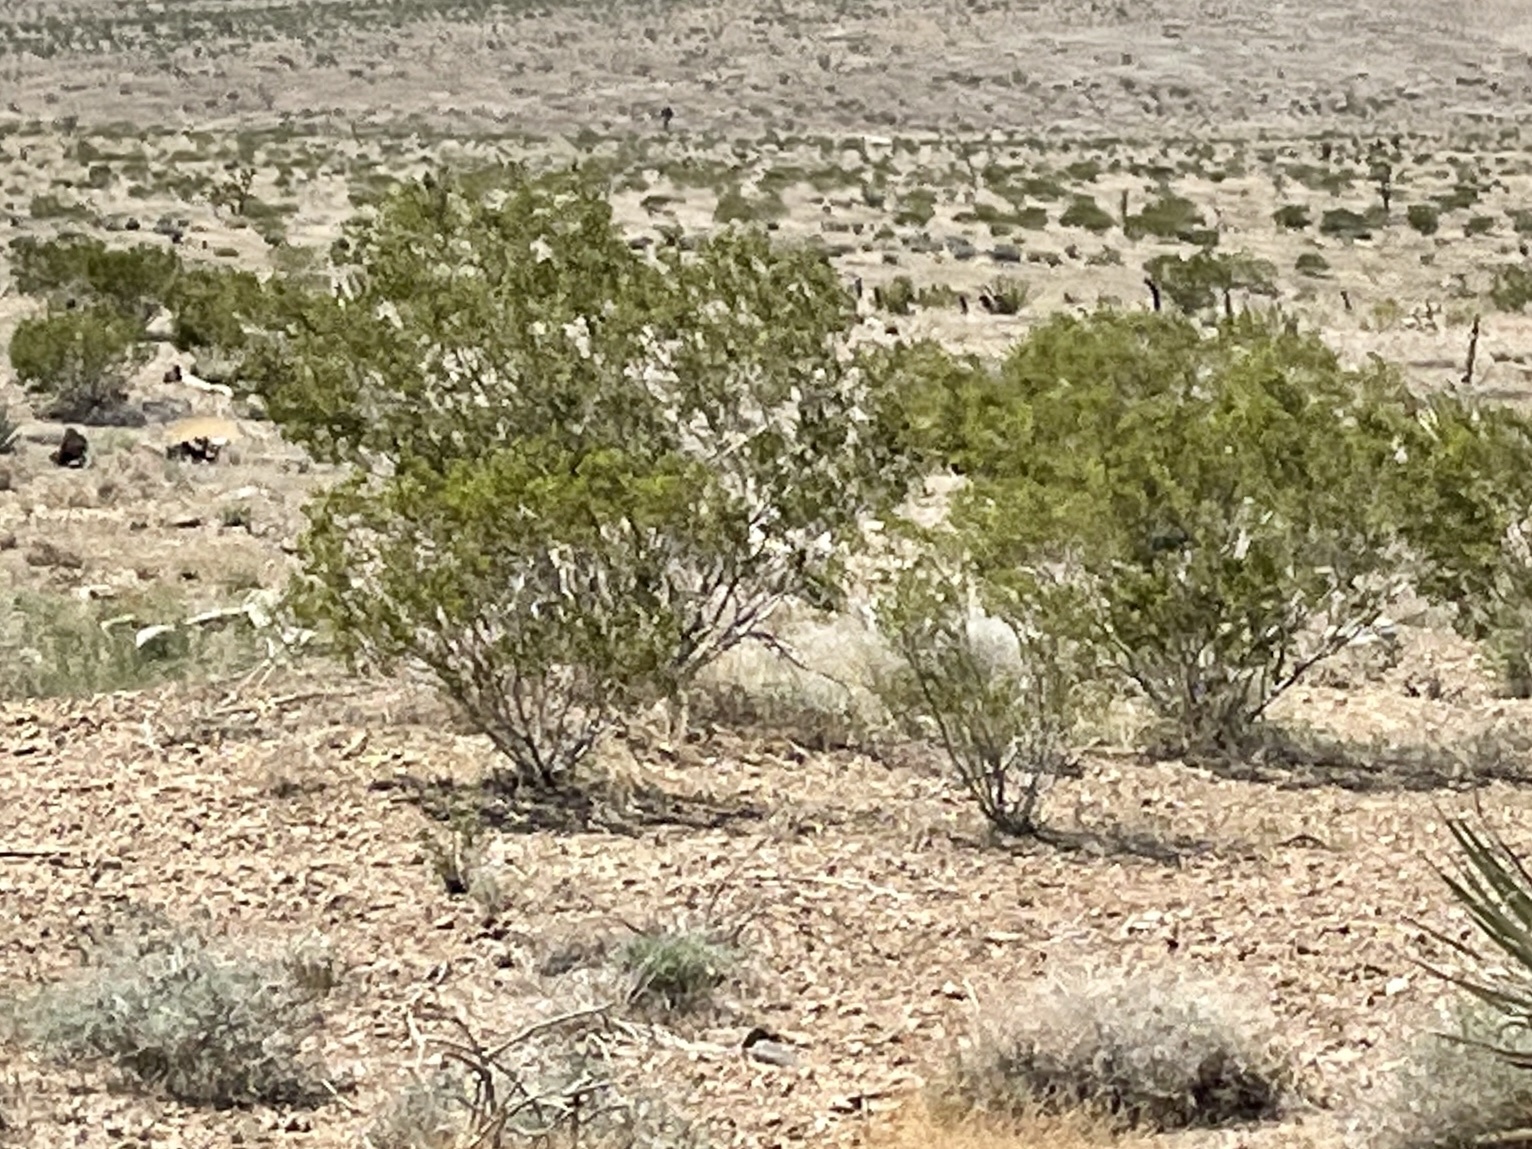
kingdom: Plantae
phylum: Tracheophyta
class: Magnoliopsida
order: Zygophyllales
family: Zygophyllaceae
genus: Larrea
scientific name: Larrea tridentata
